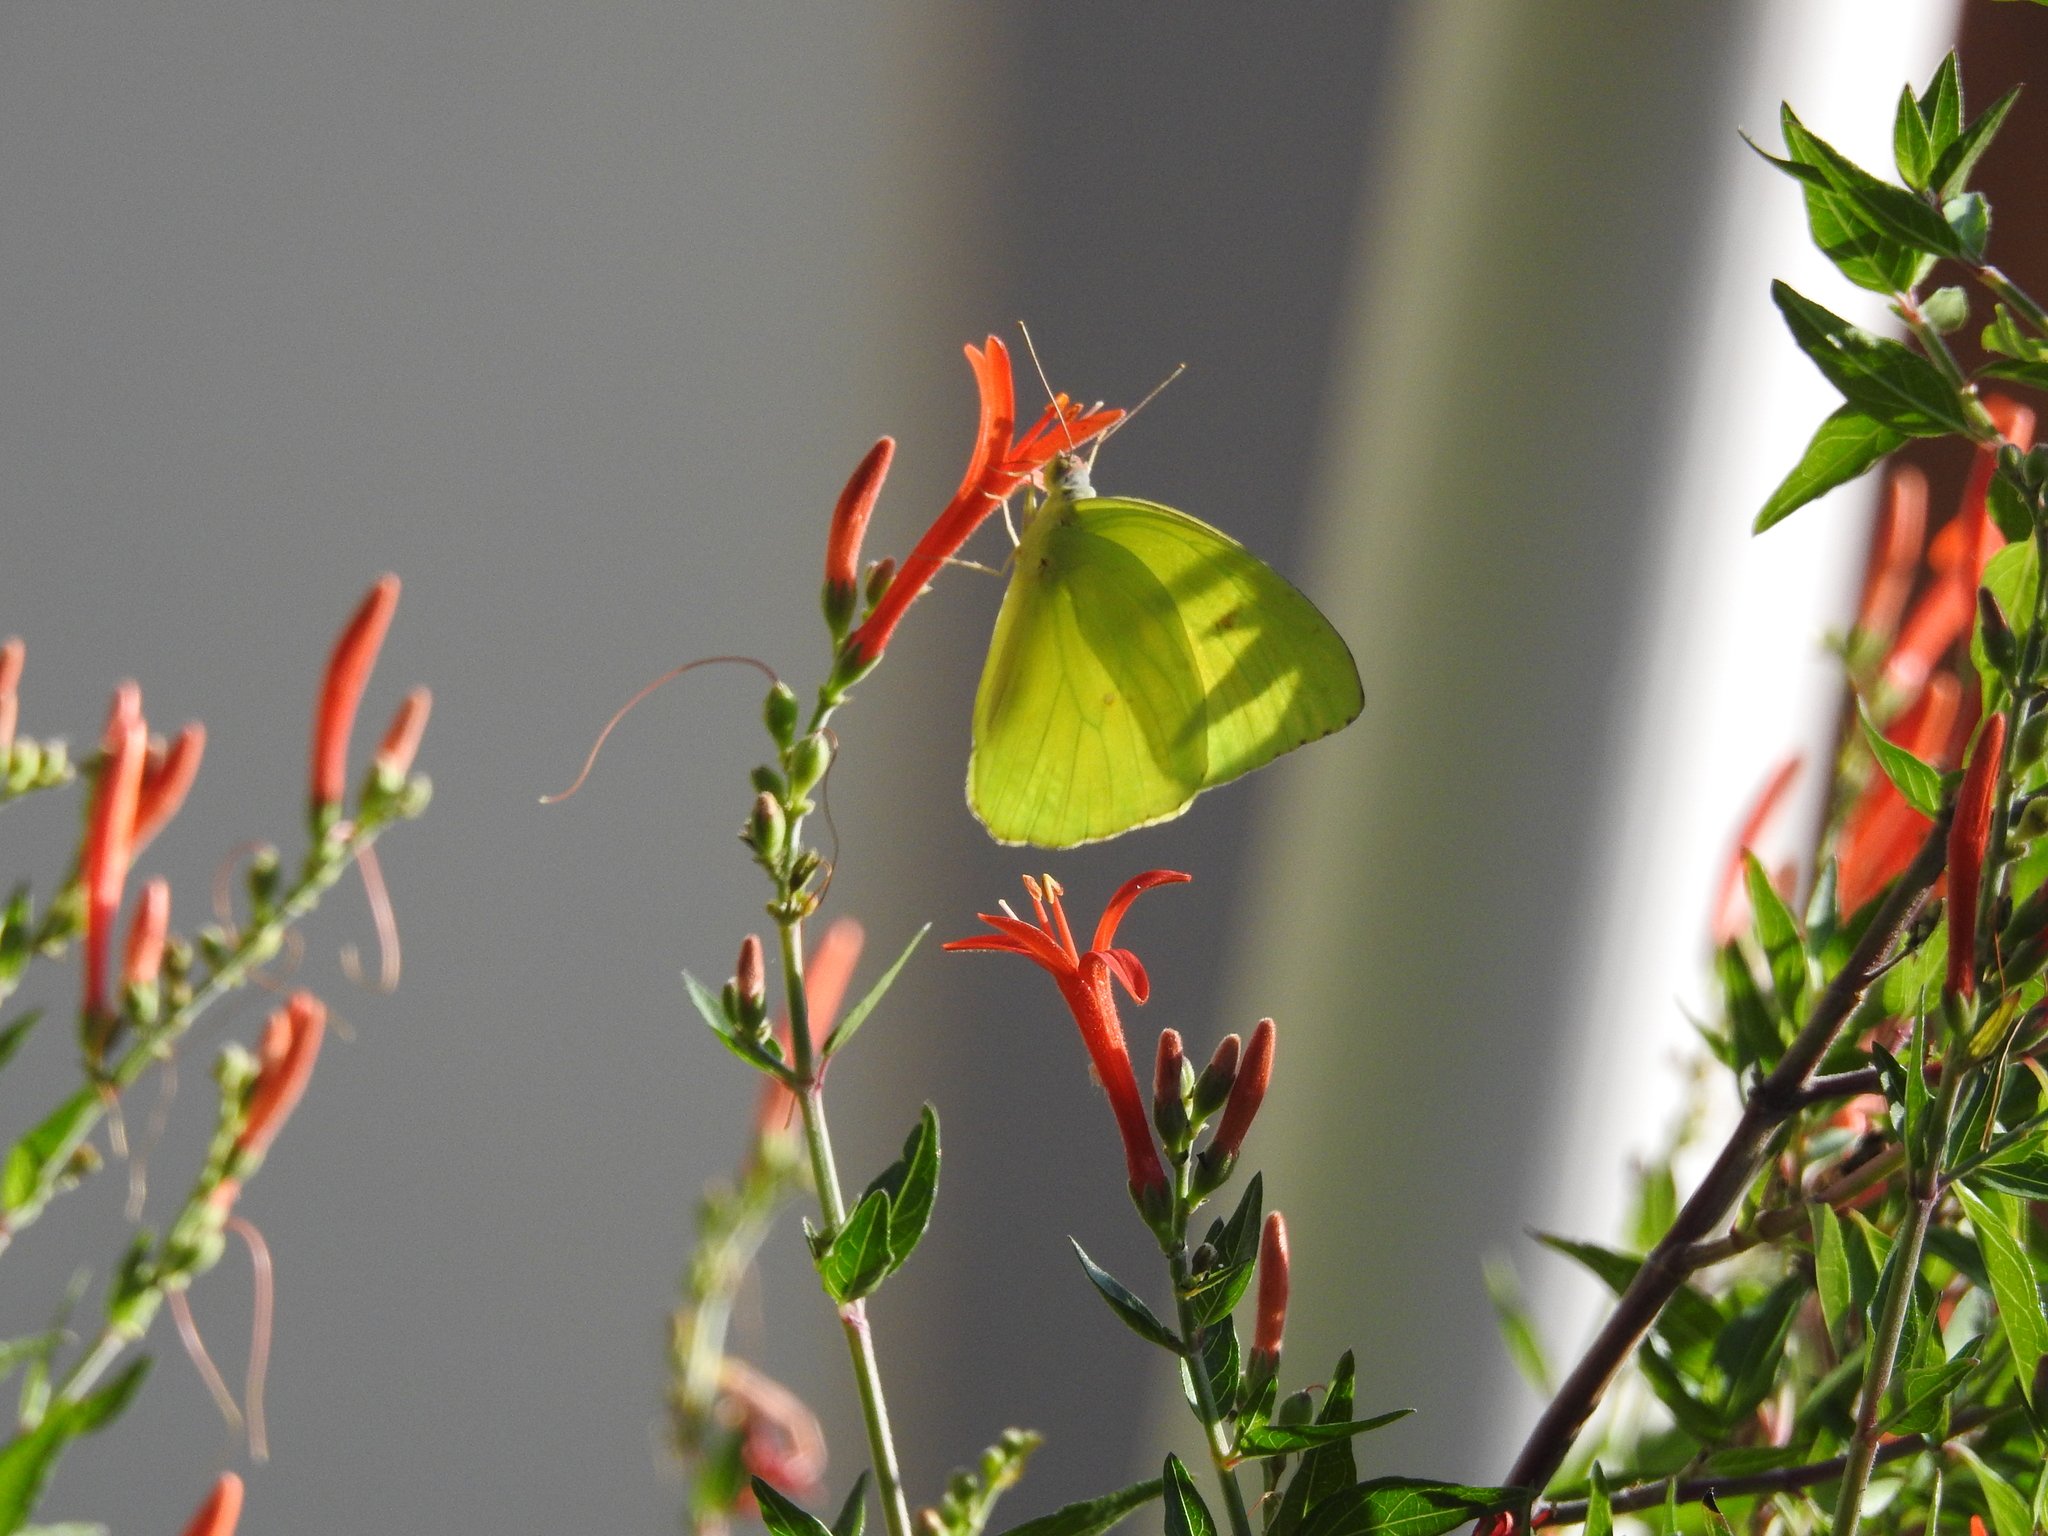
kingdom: Animalia
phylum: Arthropoda
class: Insecta
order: Lepidoptera
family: Pieridae
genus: Phoebis
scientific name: Phoebis sennae
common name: Cloudless sulphur
